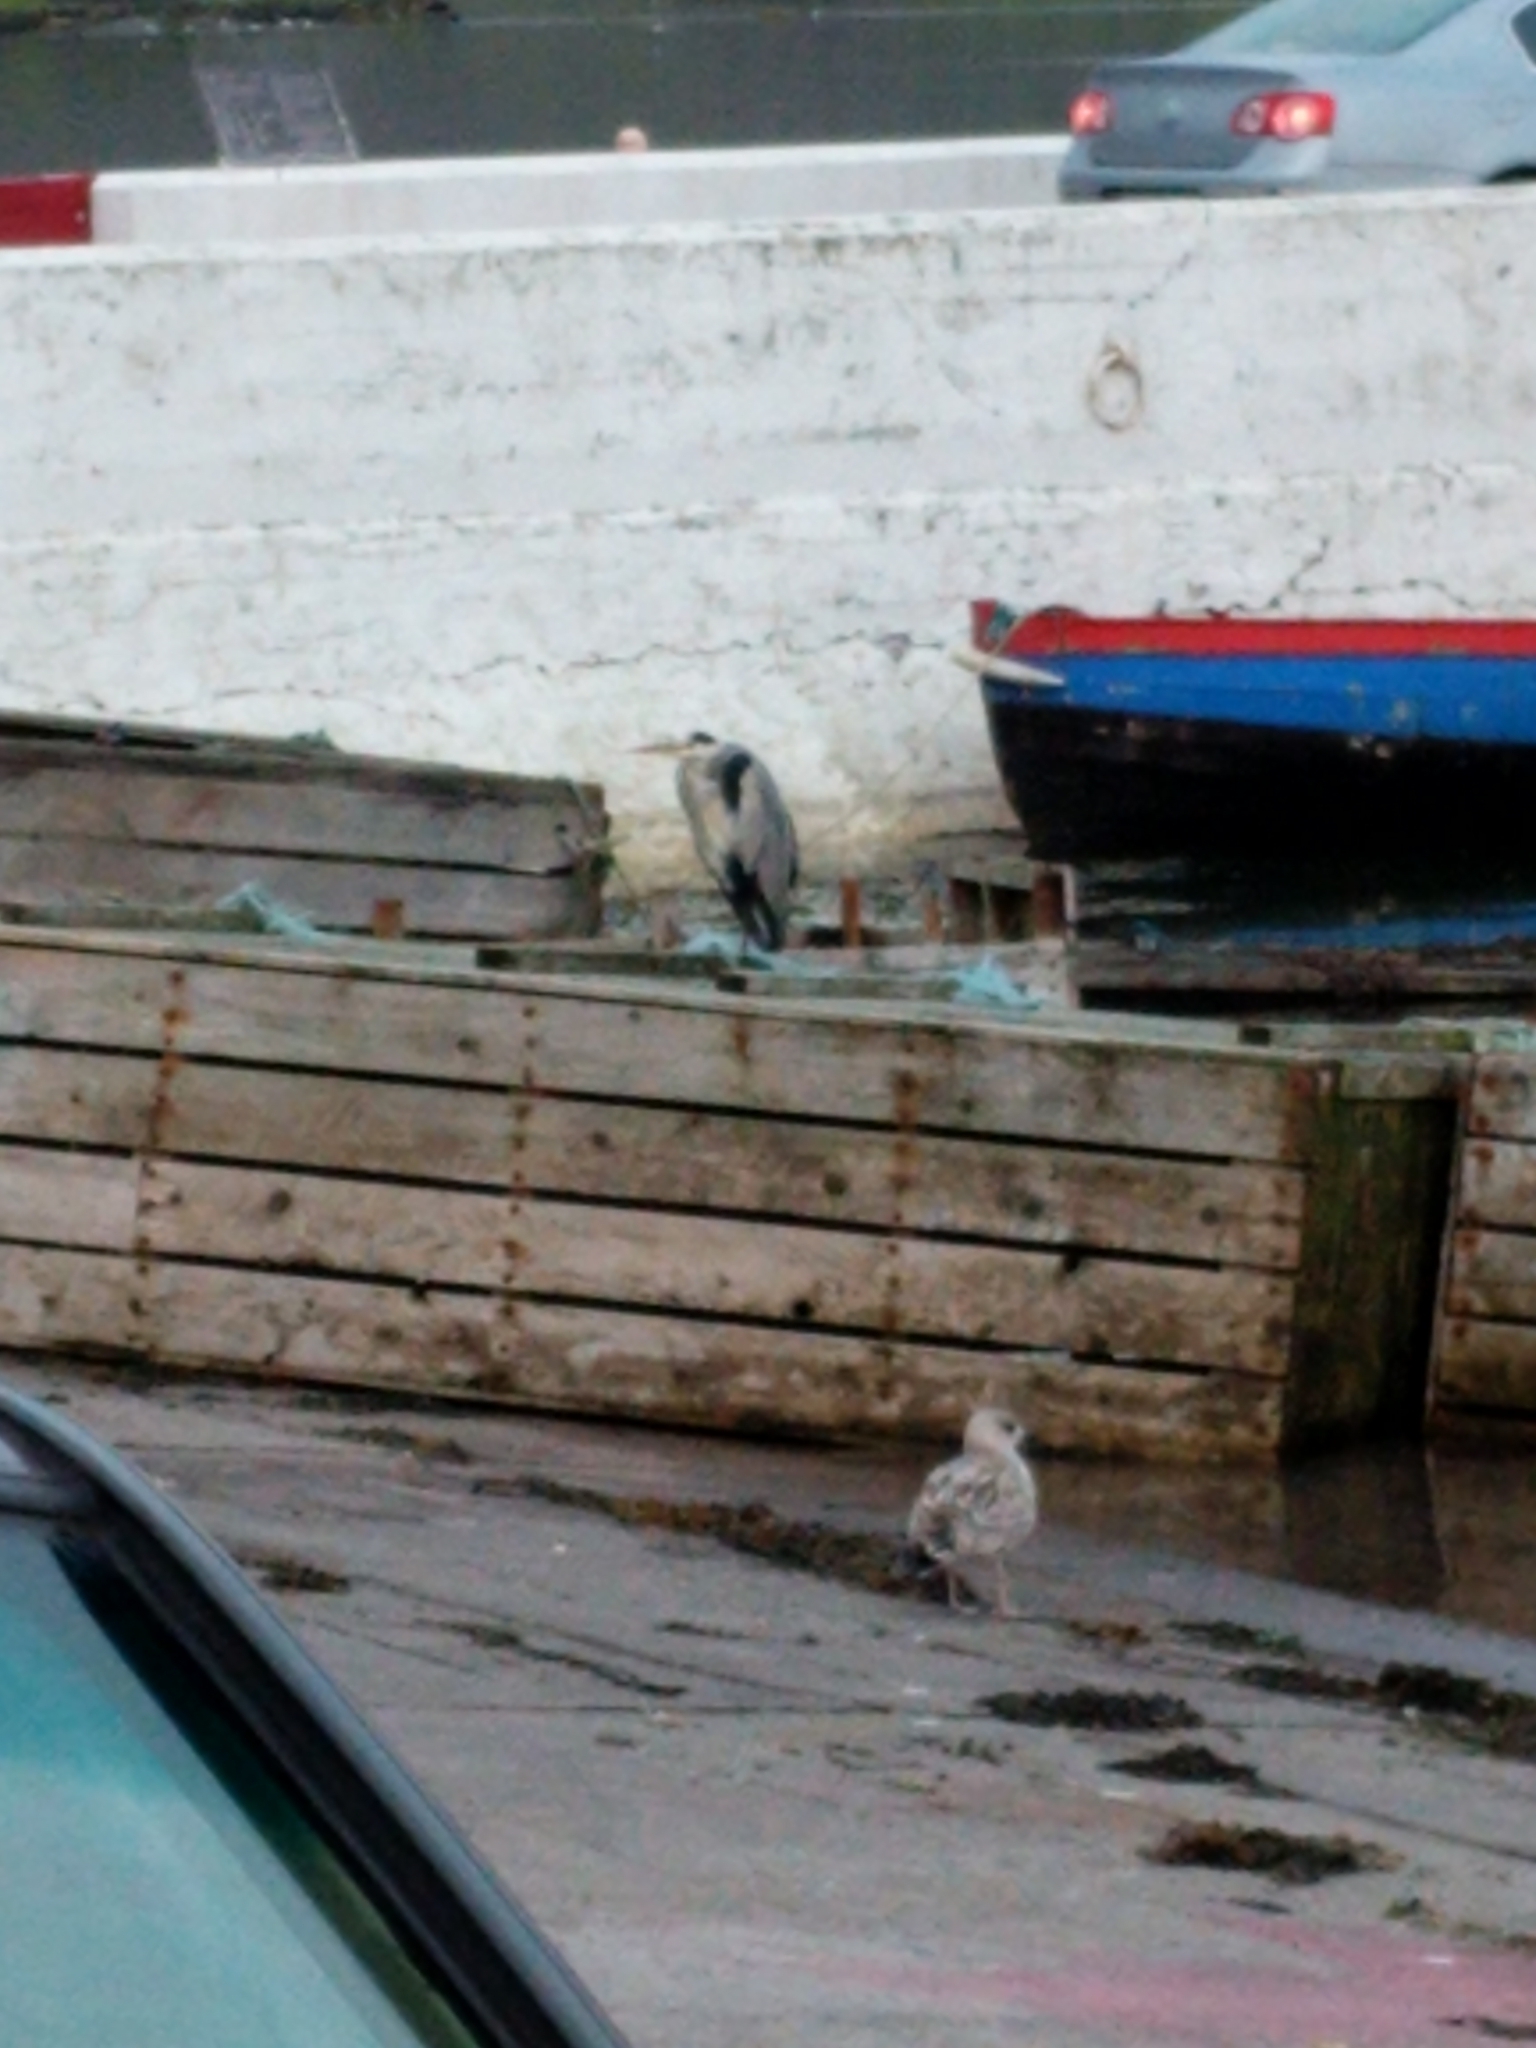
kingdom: Animalia
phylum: Chordata
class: Aves
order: Pelecaniformes
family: Ardeidae
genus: Ardea
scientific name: Ardea cinerea
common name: Grey heron
